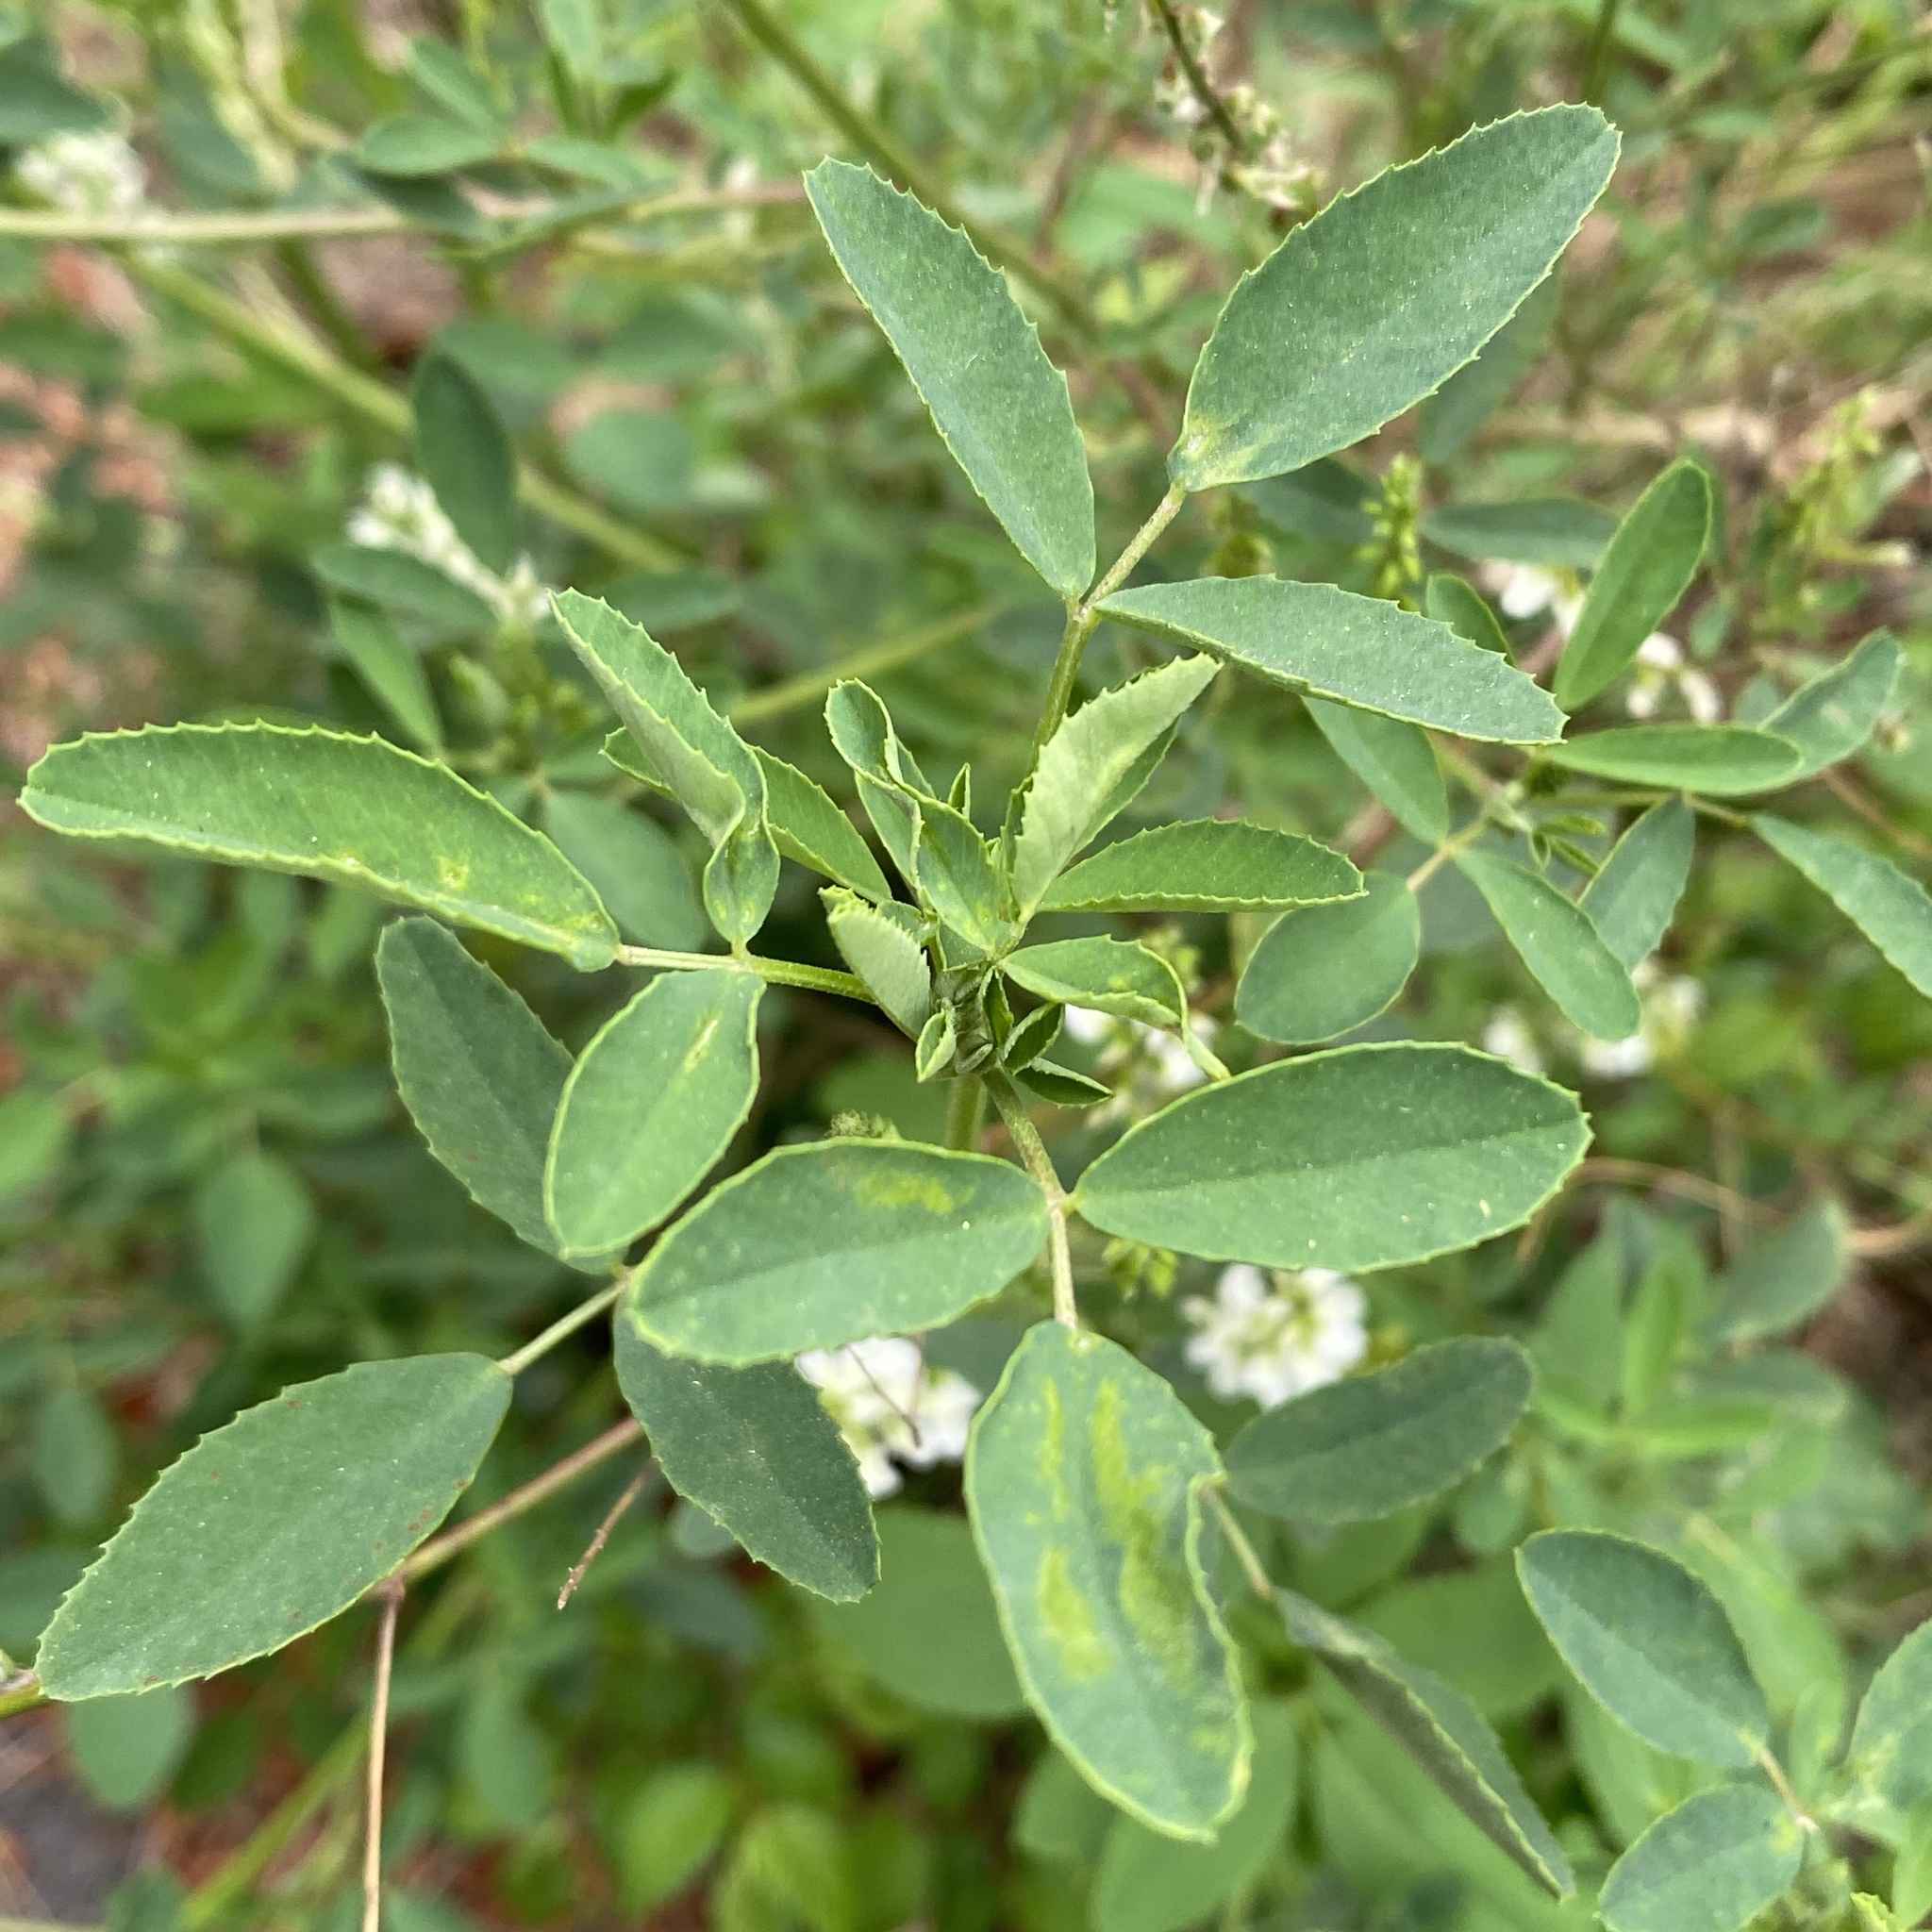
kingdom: Plantae
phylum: Tracheophyta
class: Magnoliopsida
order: Fabales
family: Fabaceae
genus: Melilotus
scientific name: Melilotus albus
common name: White melilot
